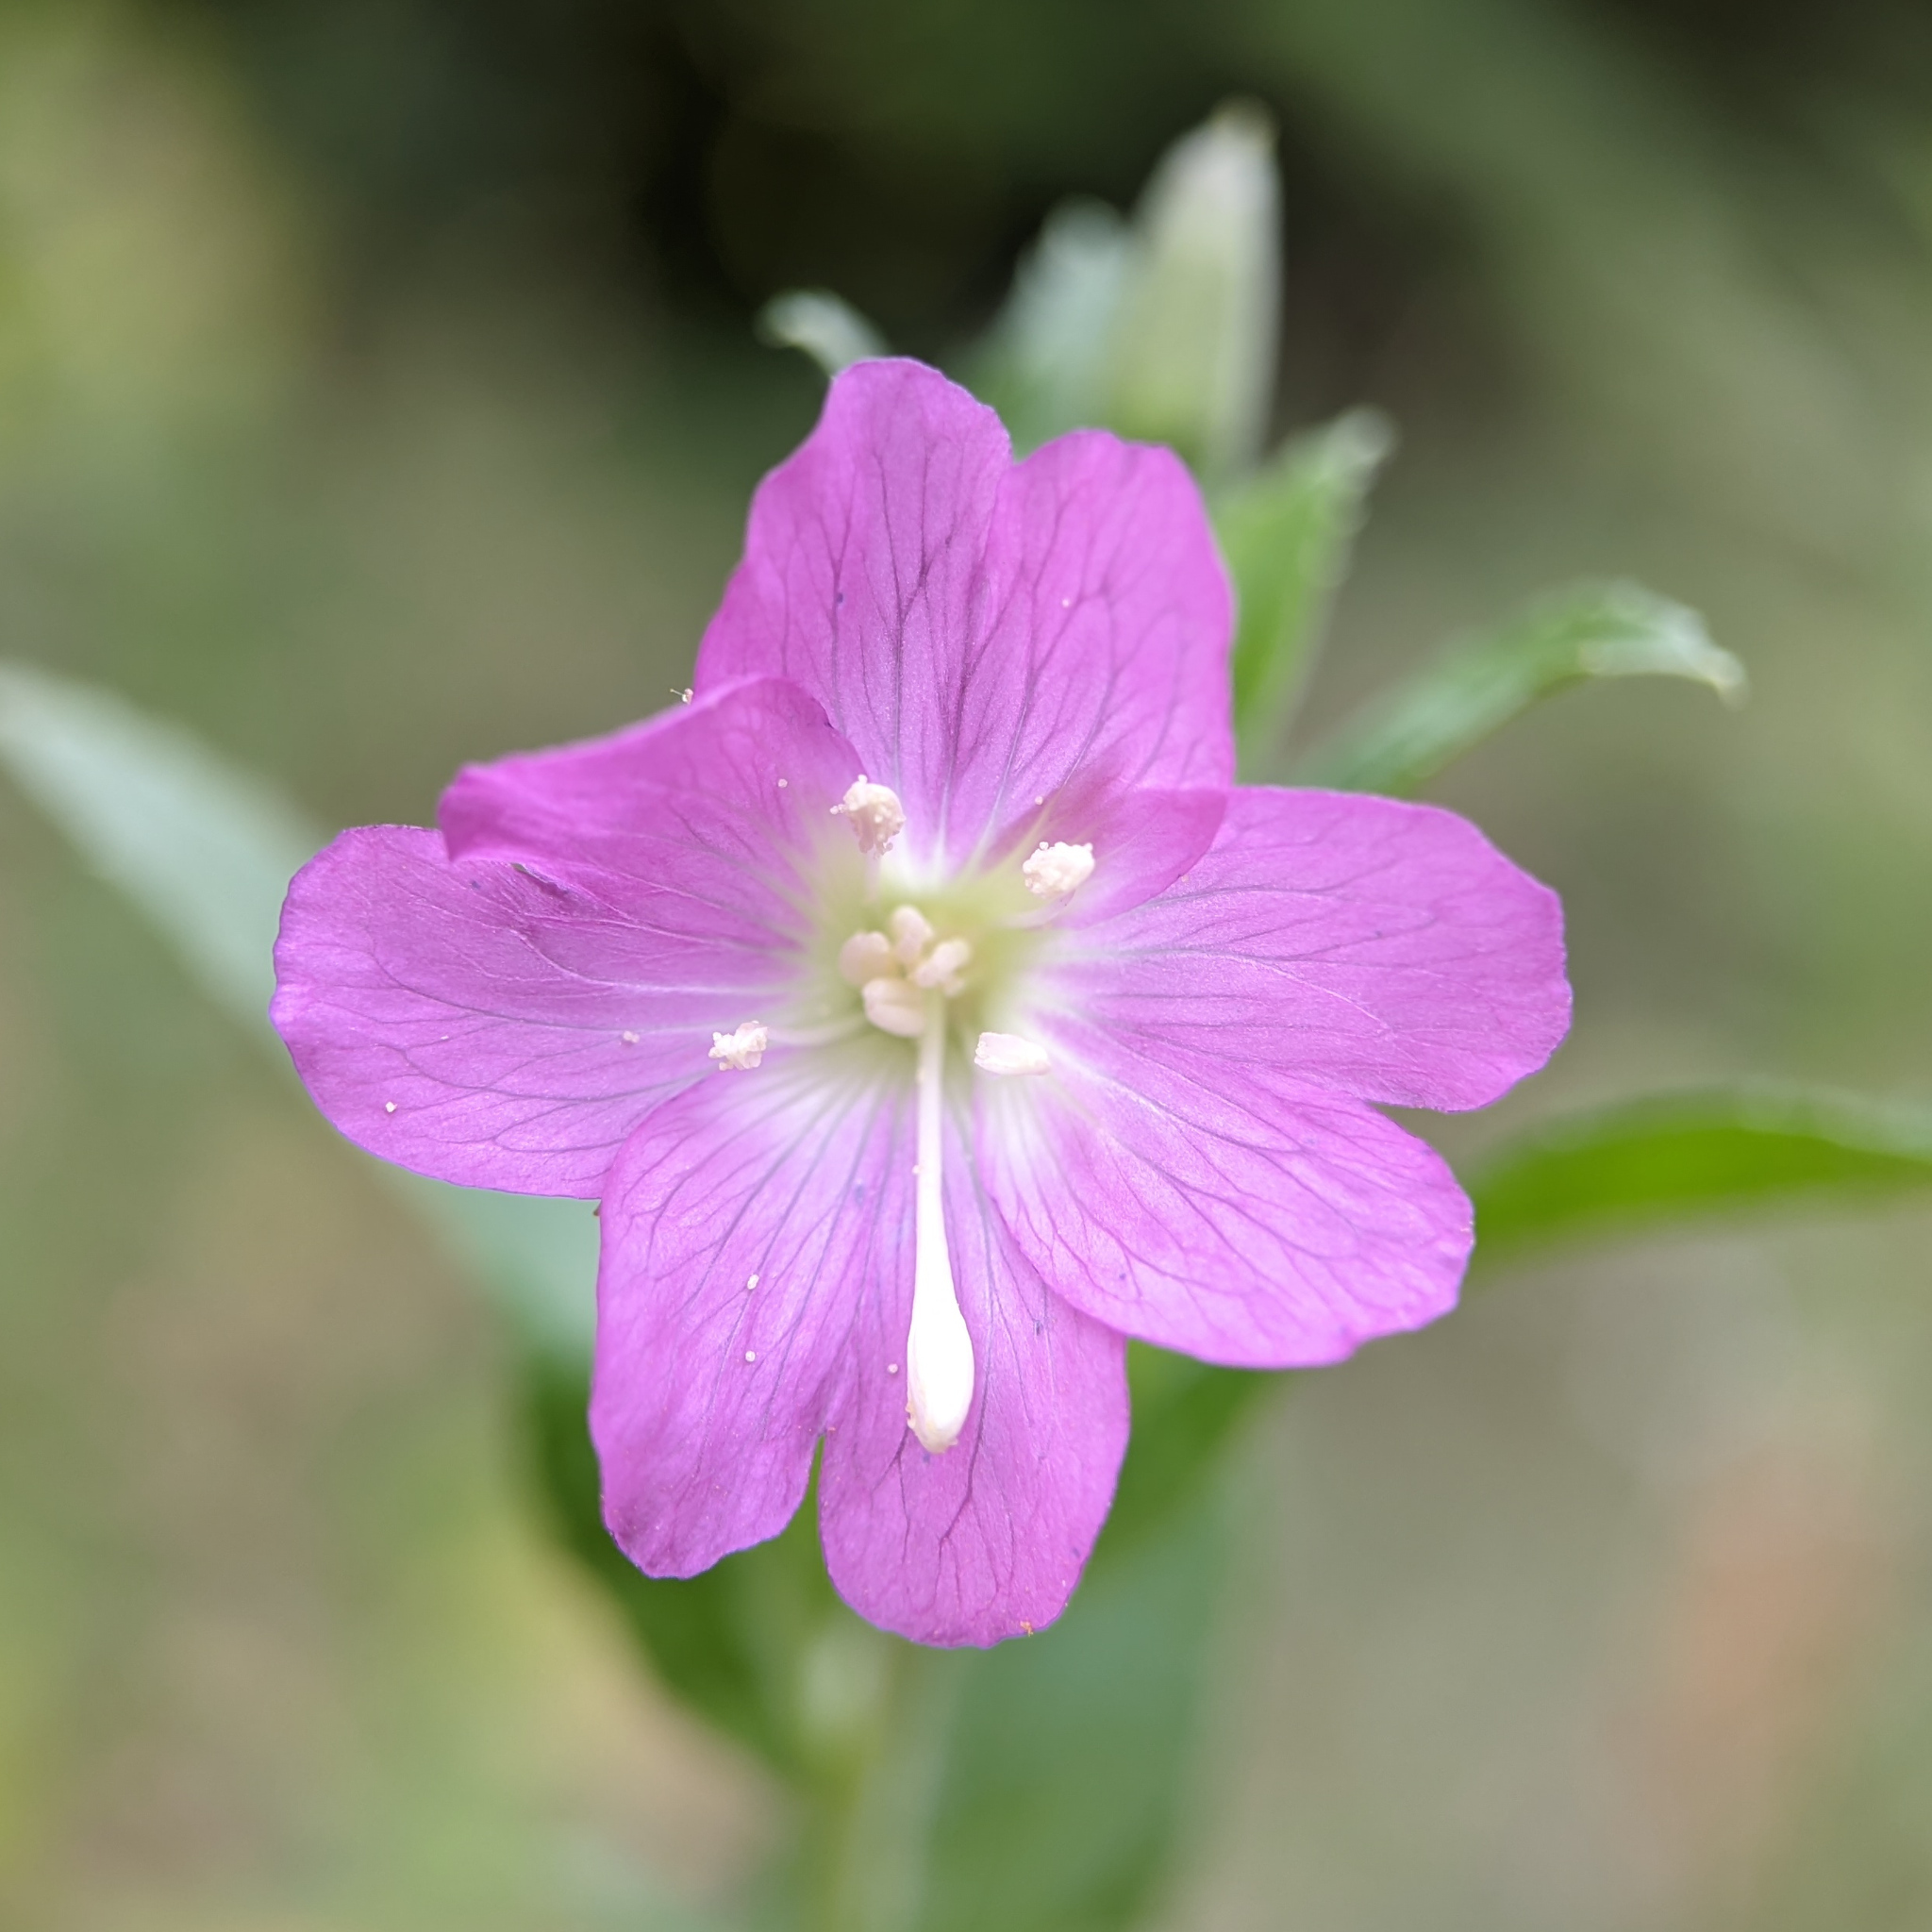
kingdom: Plantae
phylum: Tracheophyta
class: Magnoliopsida
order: Myrtales
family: Onagraceae
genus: Epilobium
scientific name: Epilobium hirsutum
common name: Great willowherb
